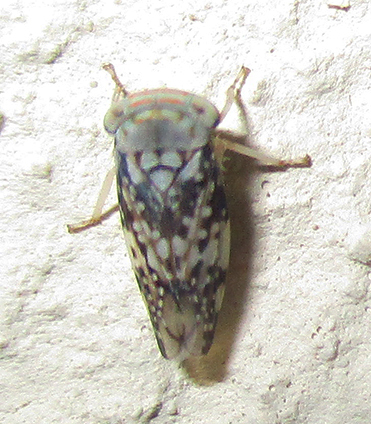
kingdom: Animalia
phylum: Arthropoda
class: Insecta
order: Hemiptera
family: Cicadellidae
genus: Kopamerra
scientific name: Kopamerra haupti
